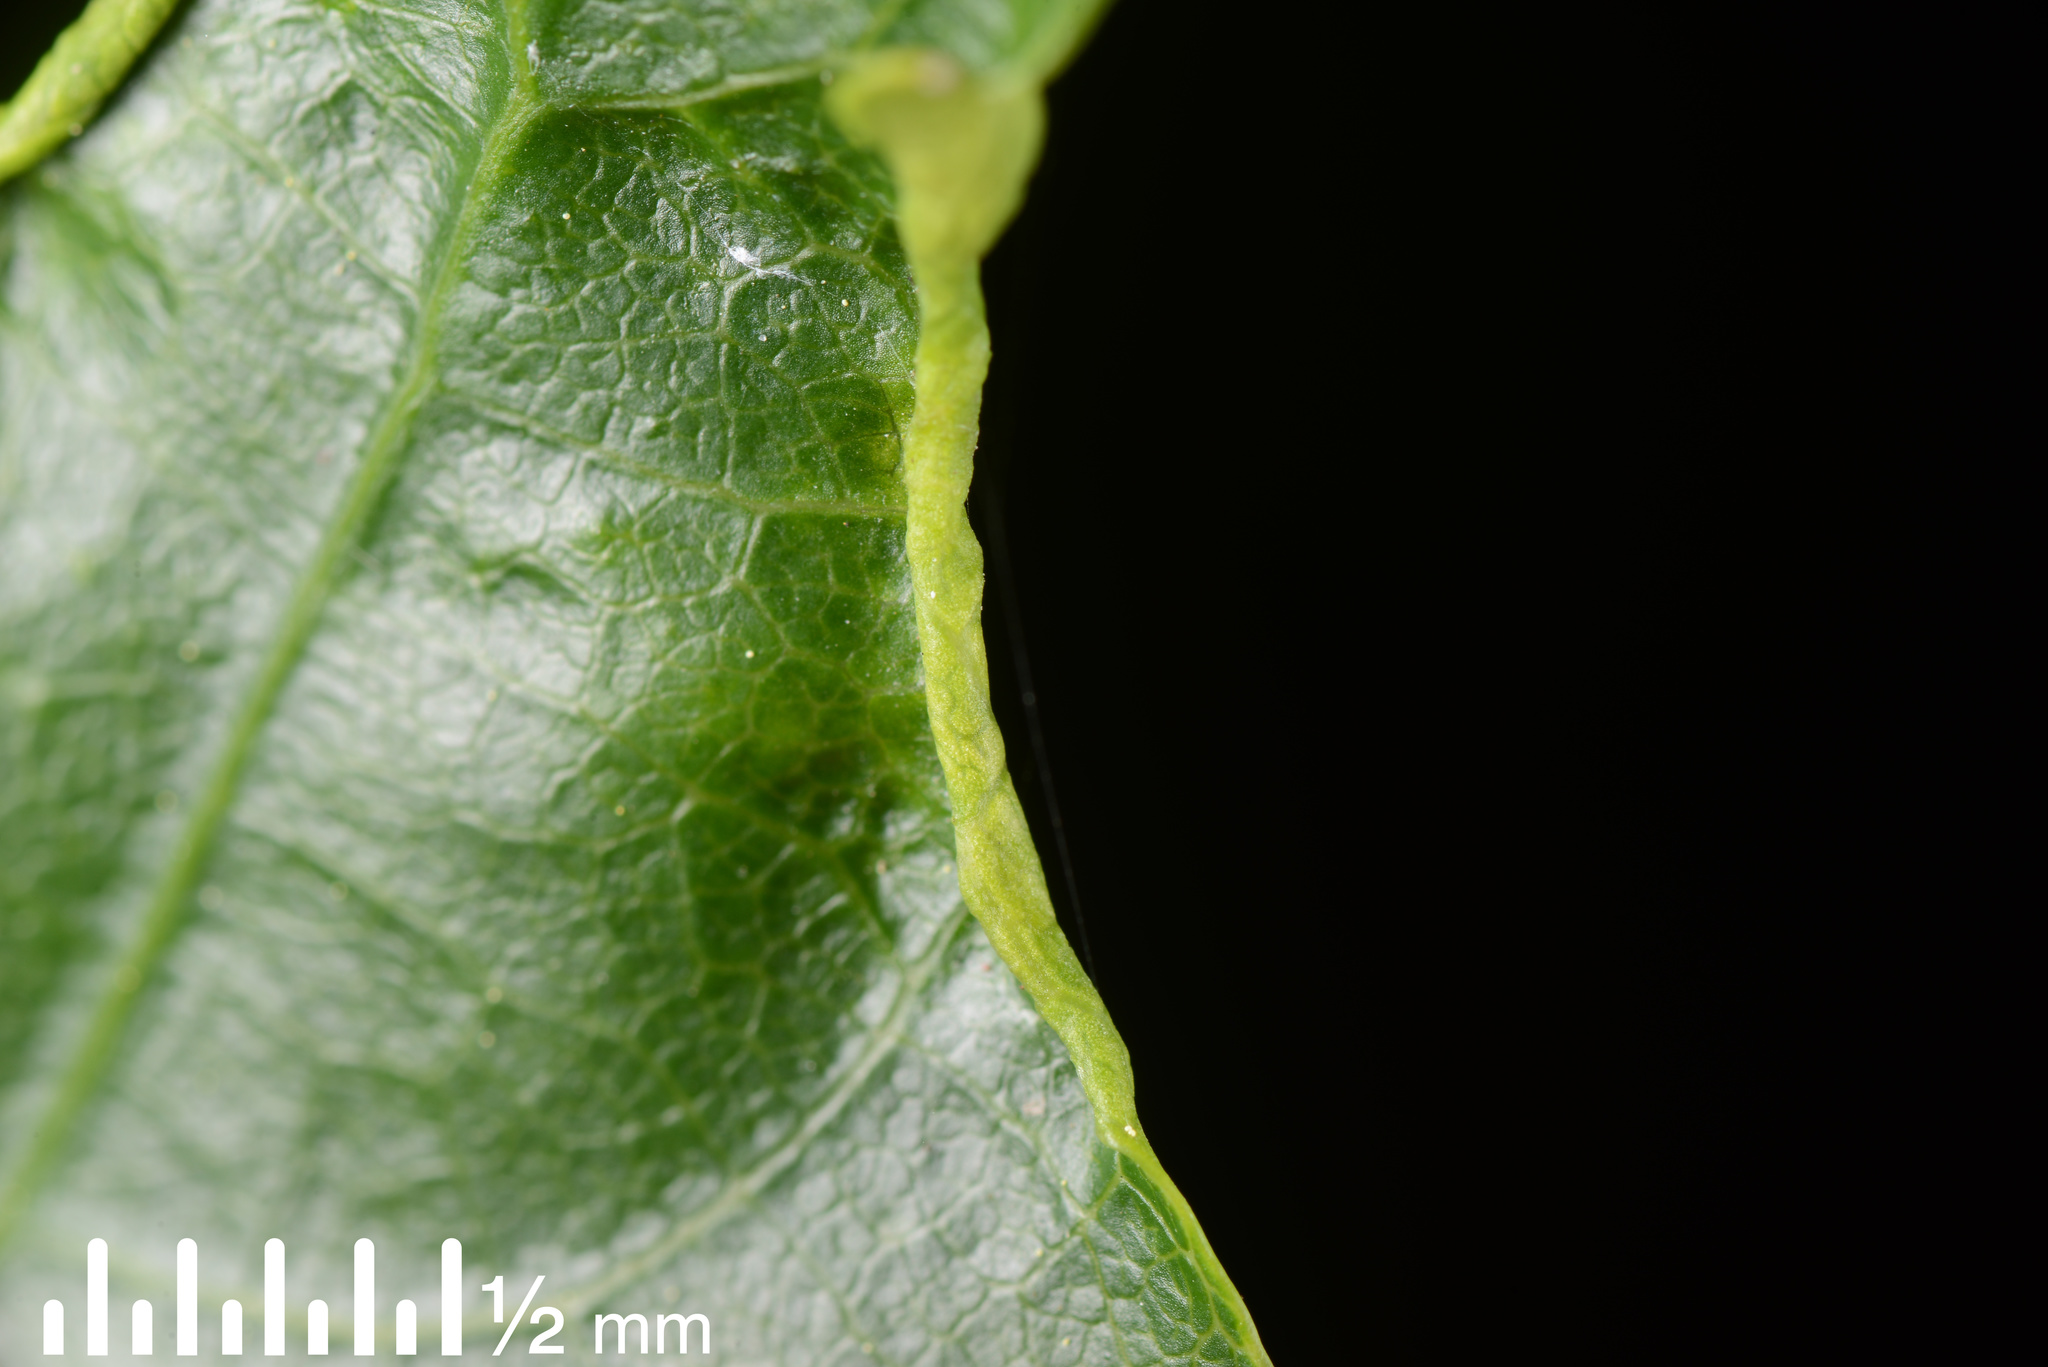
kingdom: Animalia
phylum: Arthropoda
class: Arachnida
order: Trombidiformes
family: Eriophyidae
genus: Aceria
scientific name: Aceria
